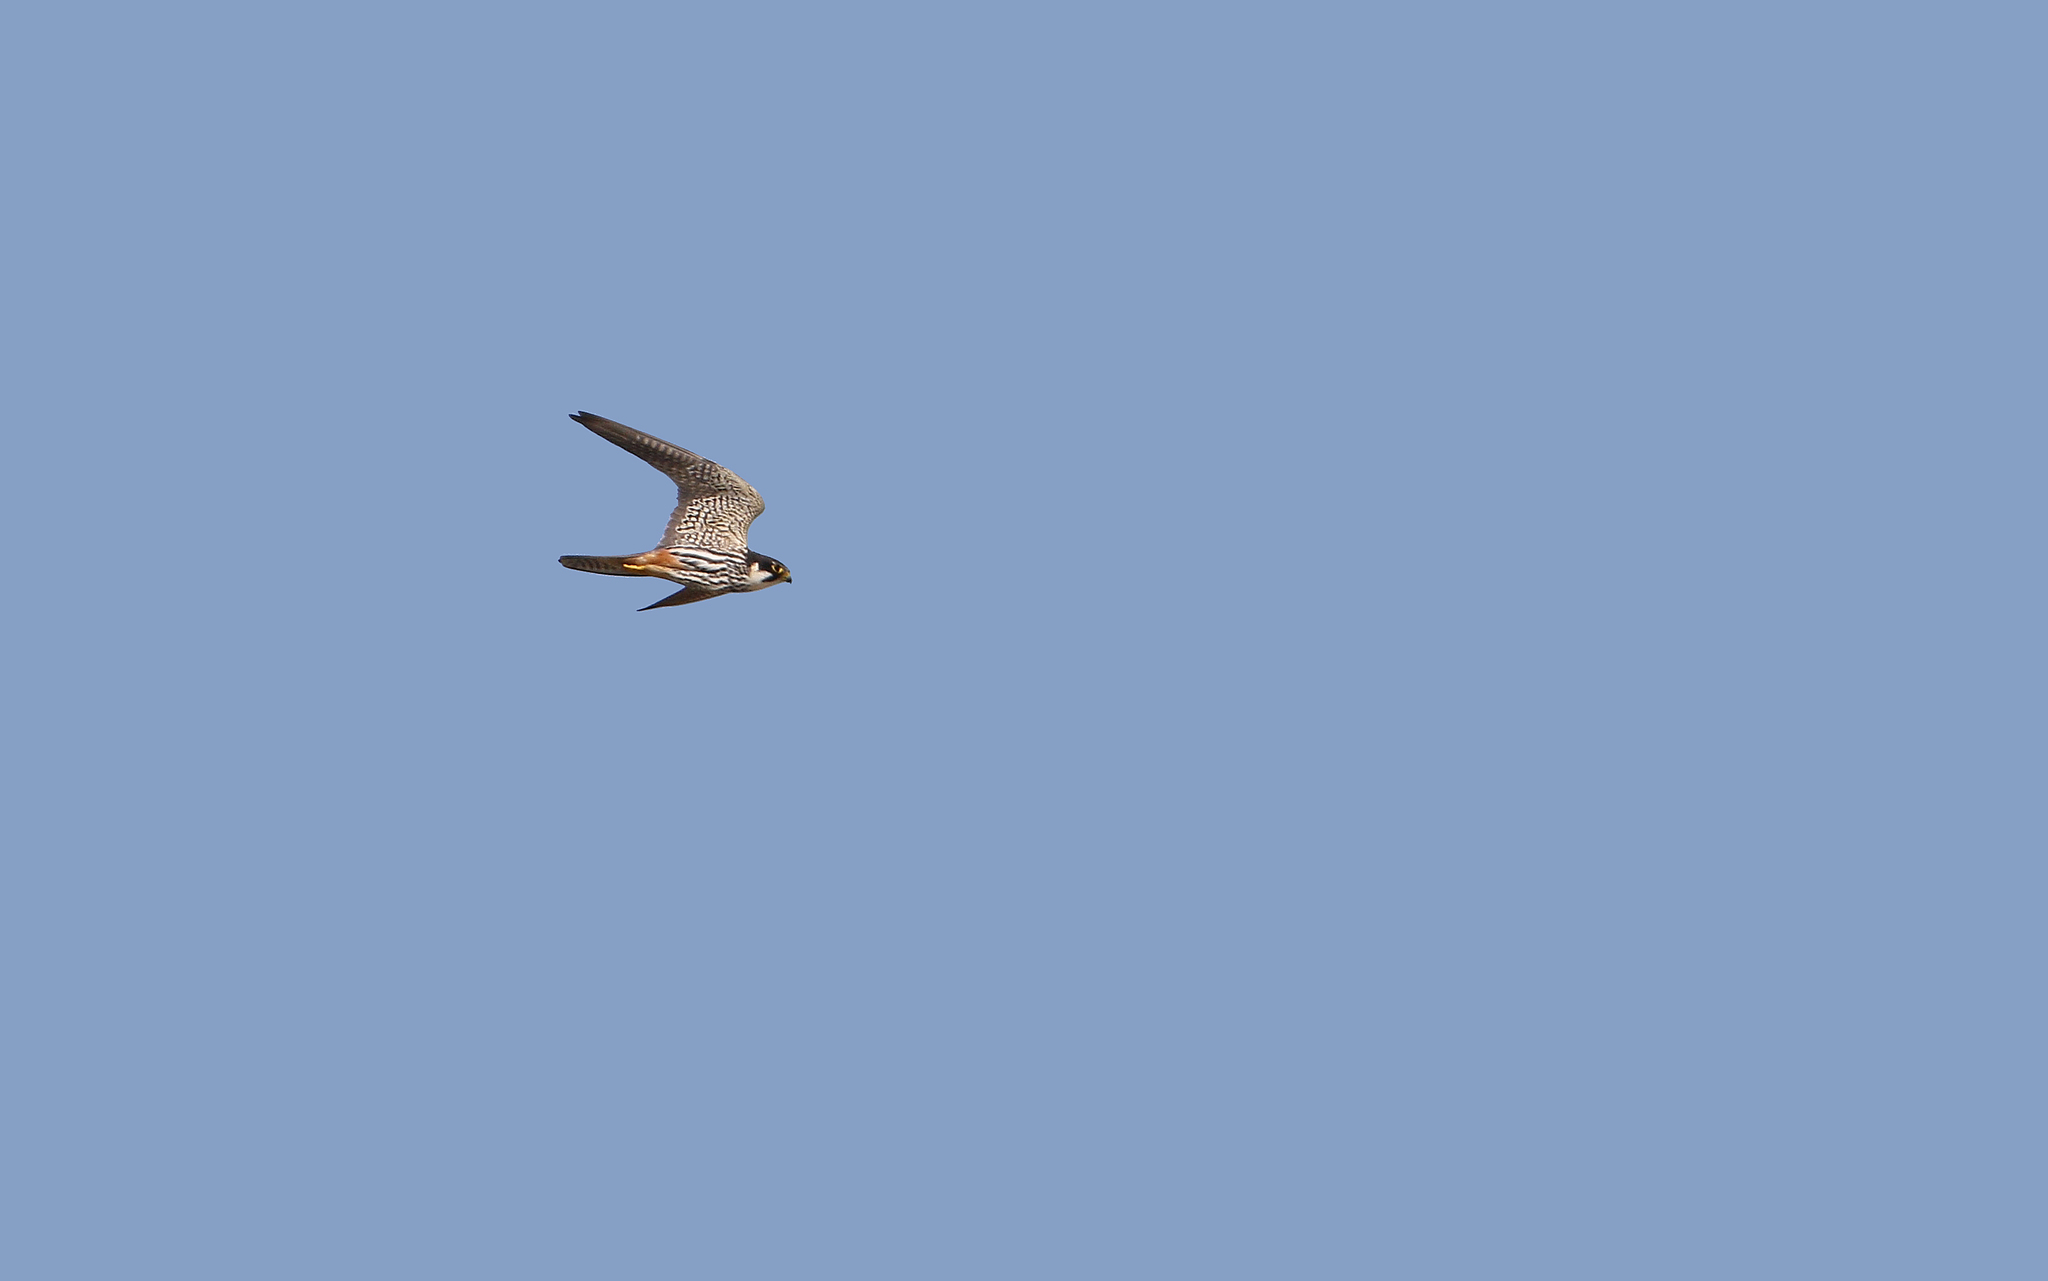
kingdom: Animalia
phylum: Chordata
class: Aves
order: Falconiformes
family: Falconidae
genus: Falco
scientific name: Falco subbuteo
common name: Eurasian hobby
